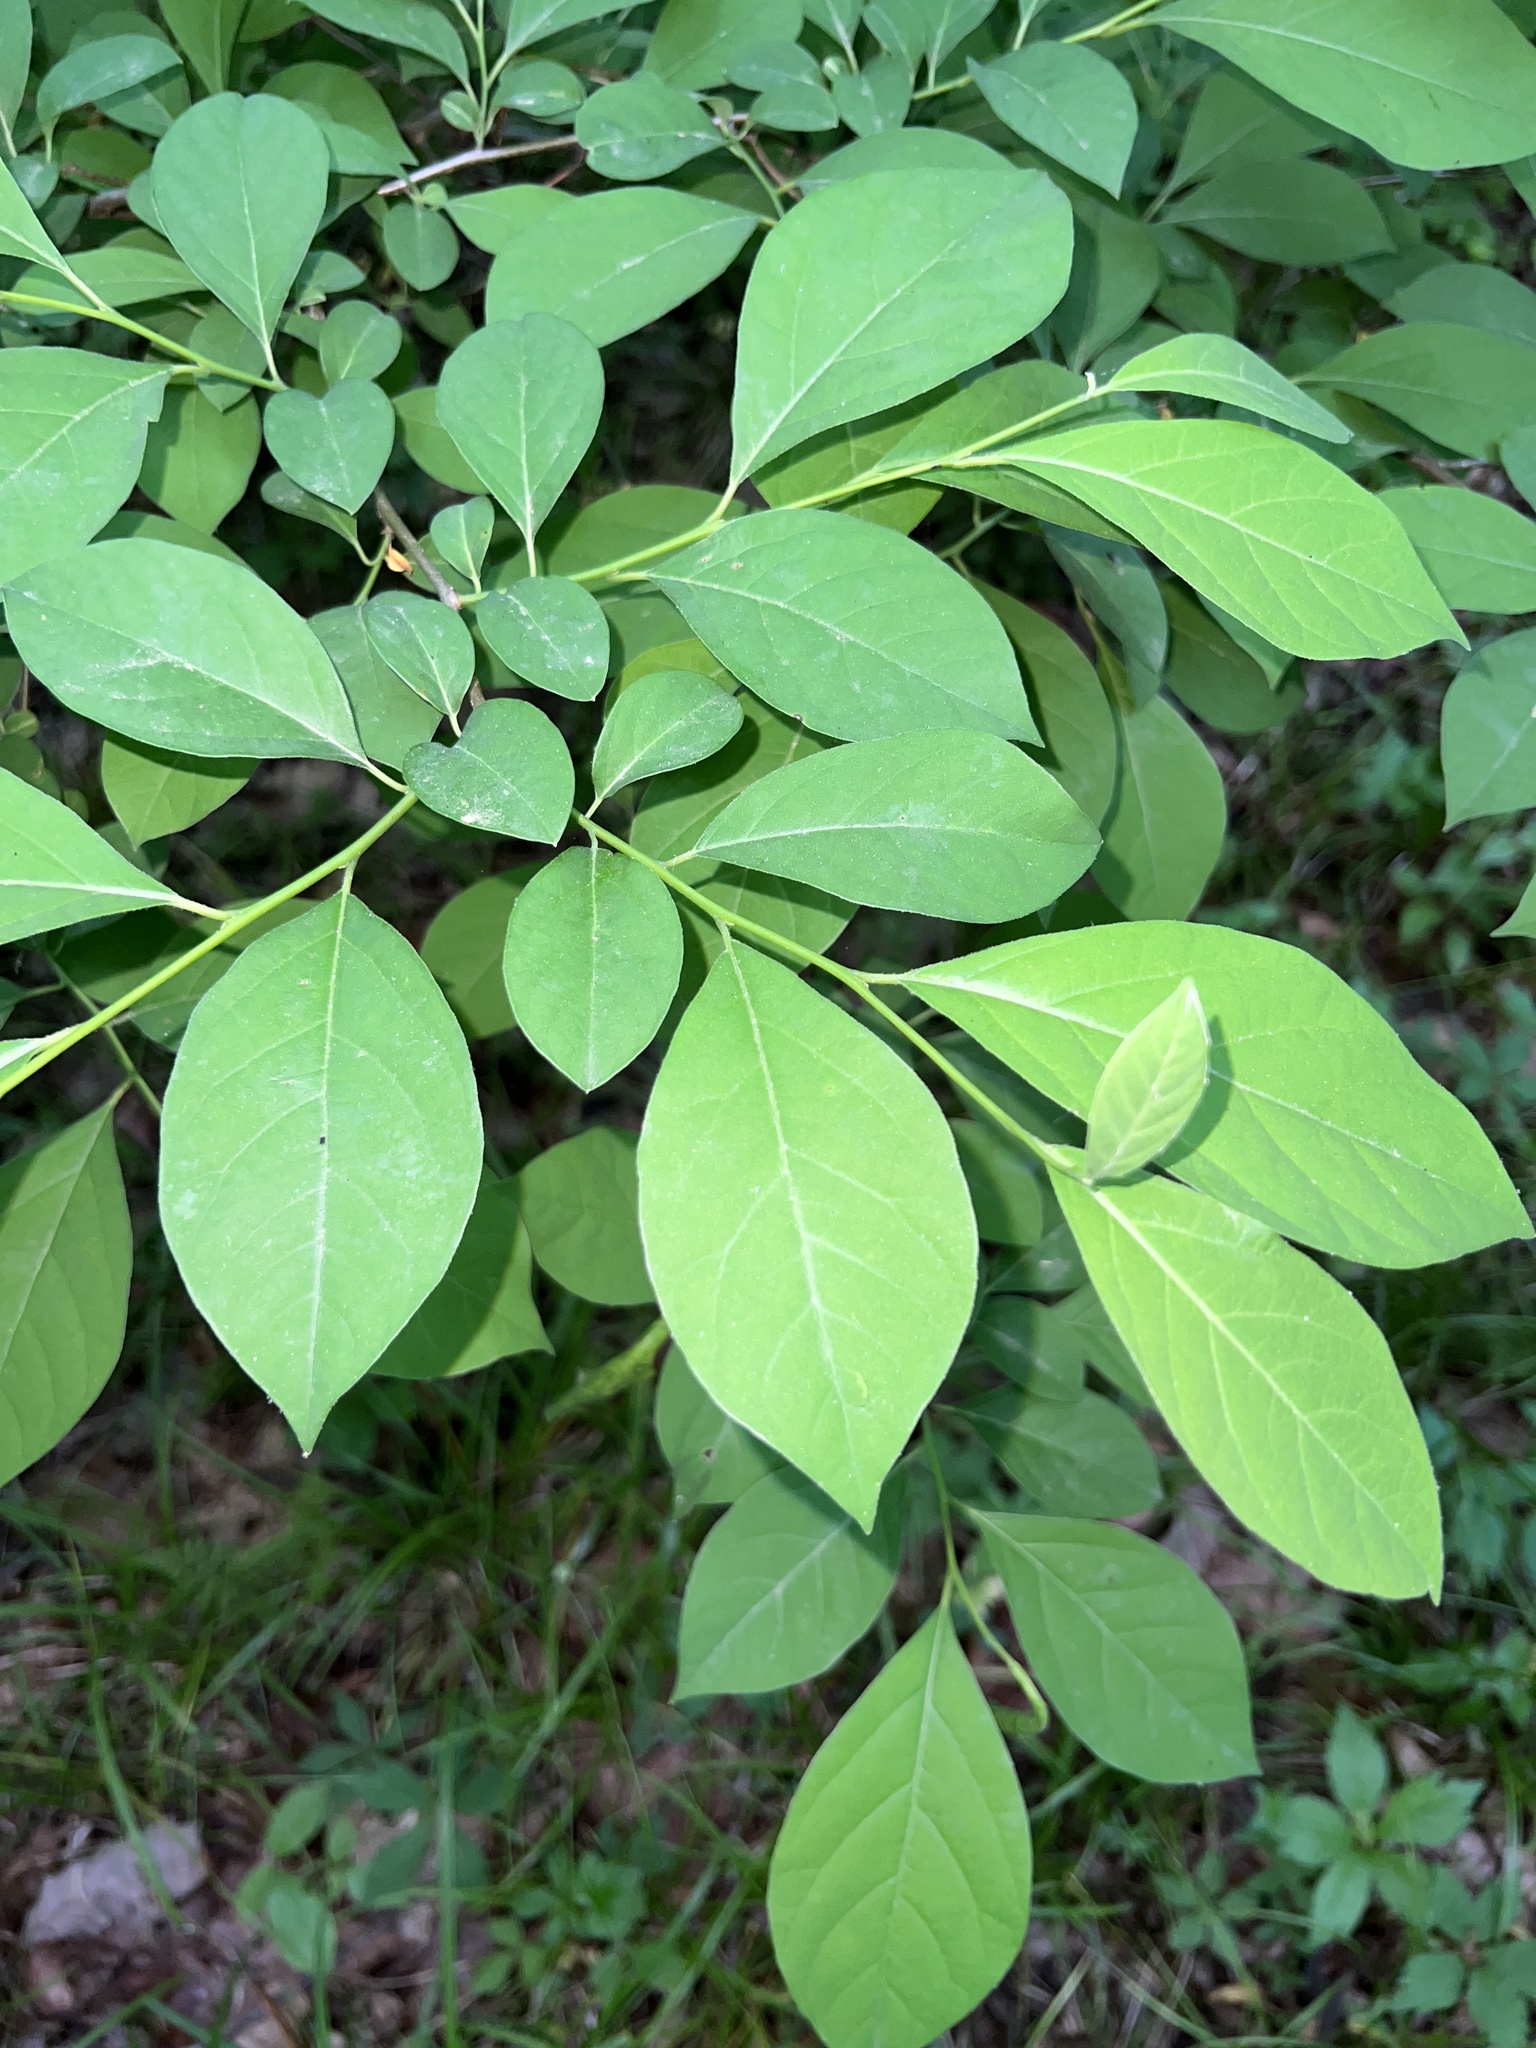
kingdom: Plantae
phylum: Tracheophyta
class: Magnoliopsida
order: Laurales
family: Lauraceae
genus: Lindera
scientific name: Lindera benzoin
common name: Spicebush
